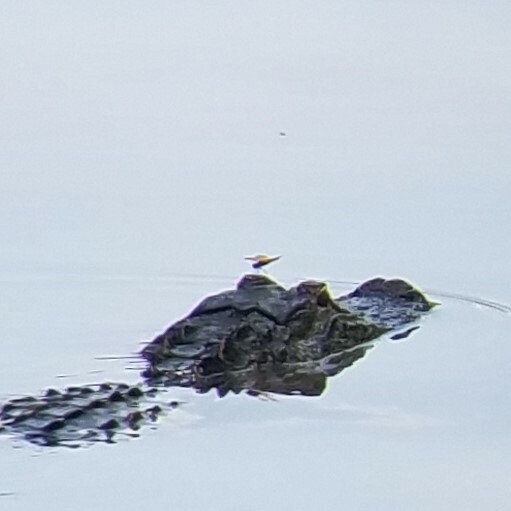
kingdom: Animalia
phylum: Arthropoda
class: Insecta
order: Odonata
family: Libellulidae
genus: Perithemis
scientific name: Perithemis tenera
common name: Eastern amberwing
